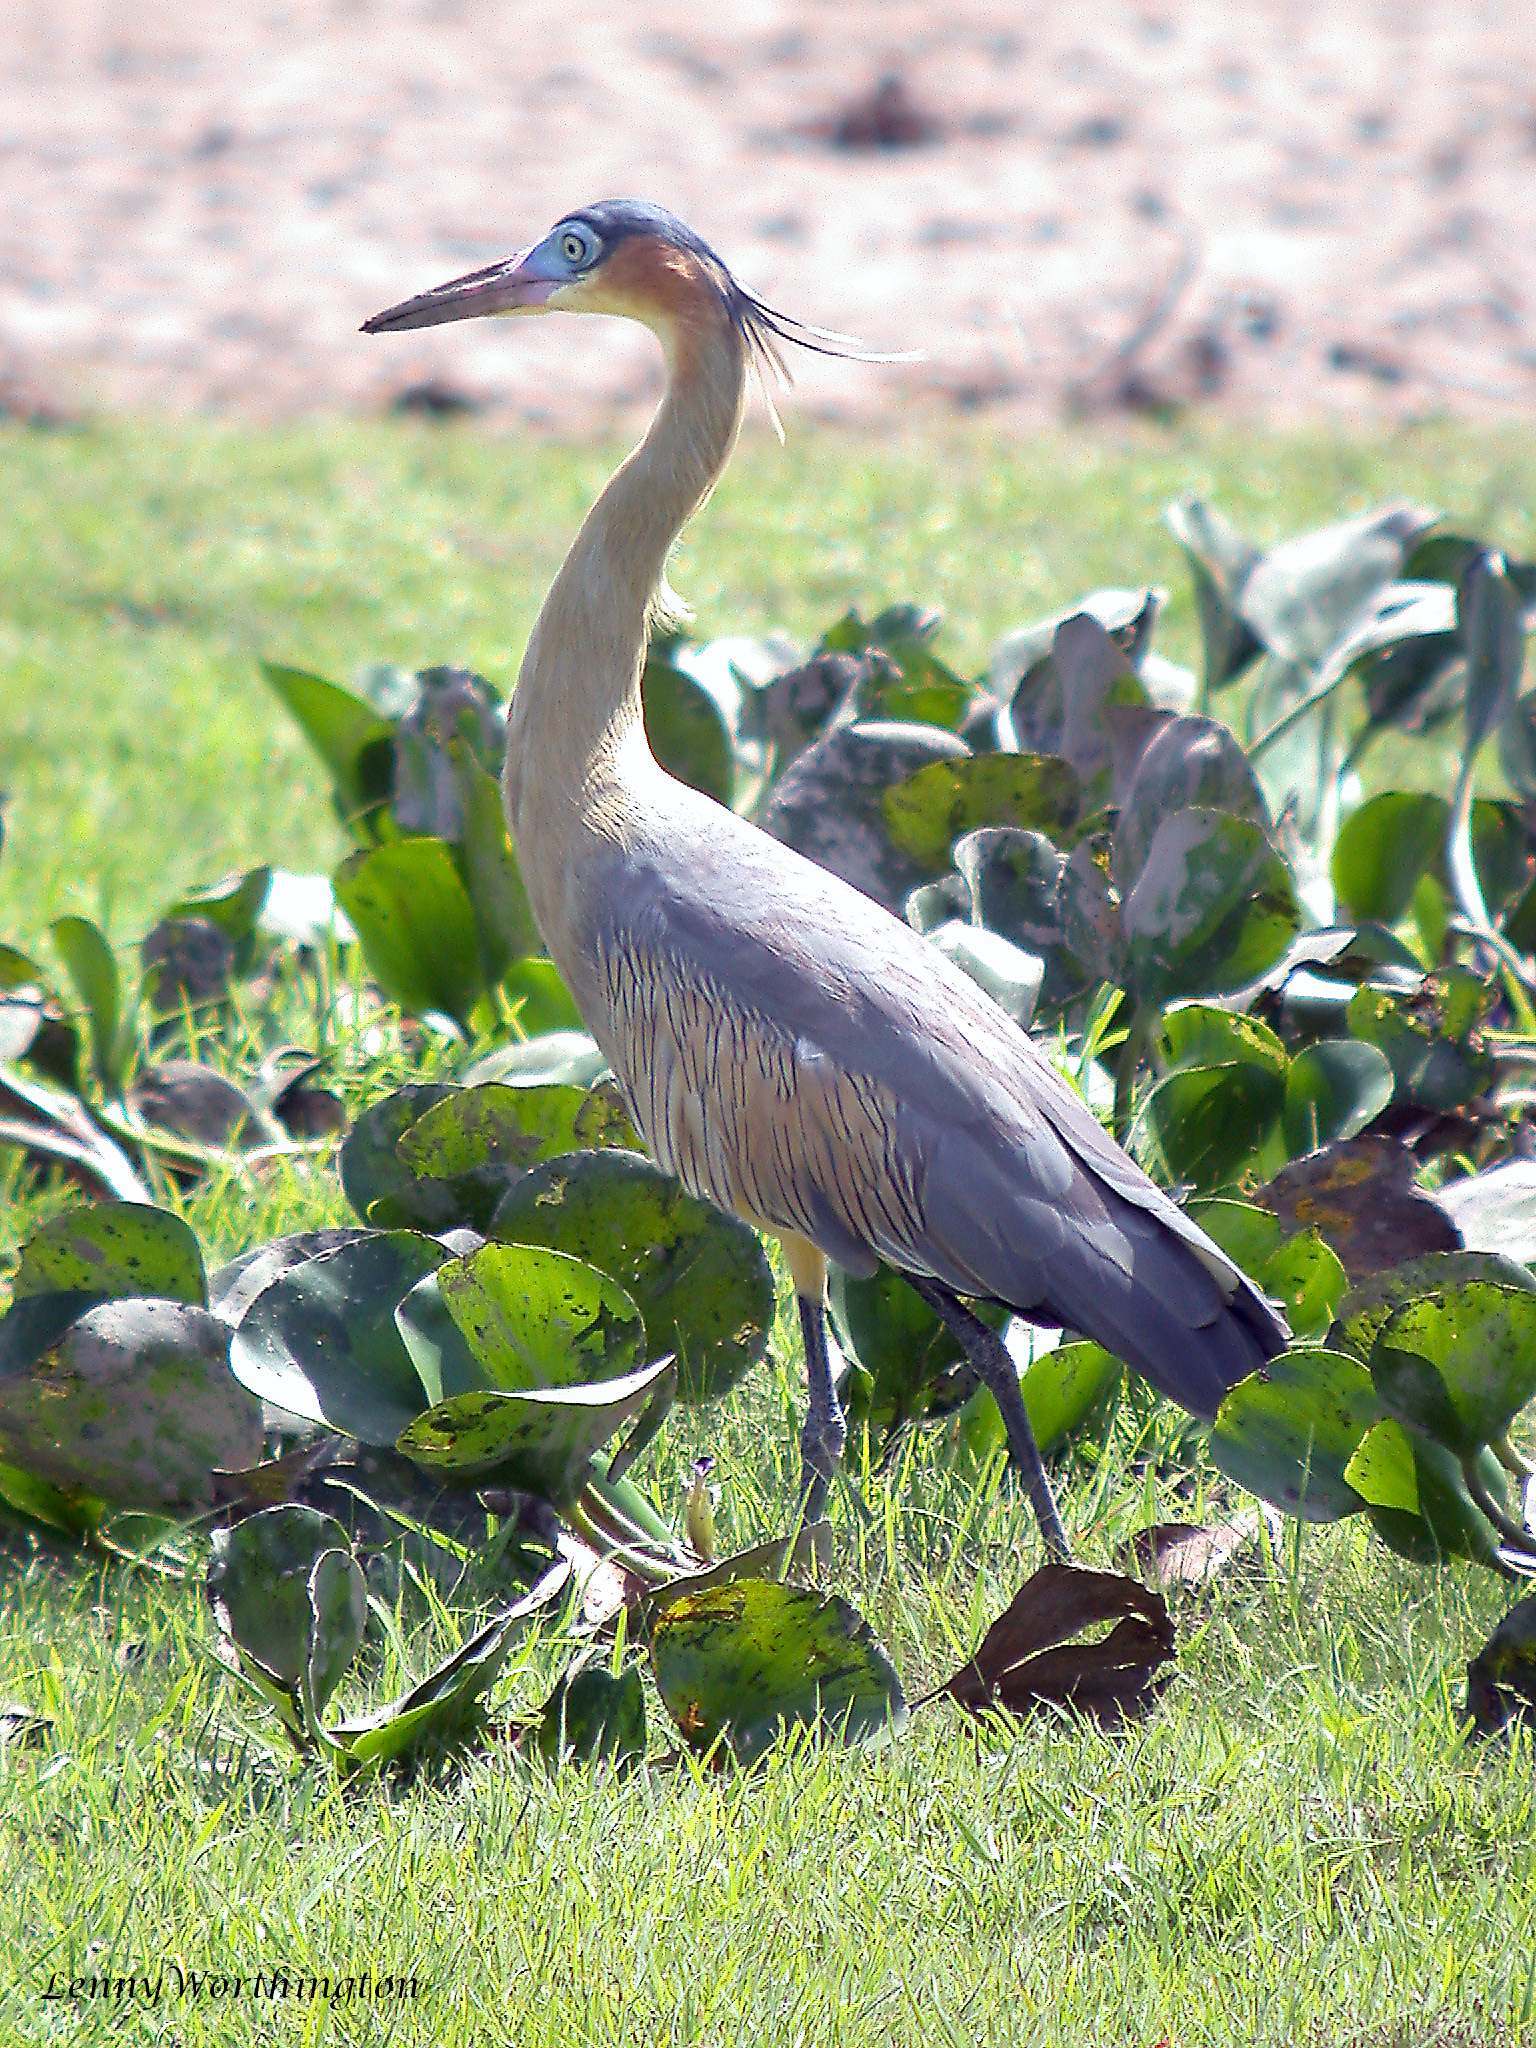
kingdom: Animalia
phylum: Chordata
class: Aves
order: Pelecaniformes
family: Ardeidae
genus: Syrigma
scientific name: Syrigma sibilatrix
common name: Whistling heron
